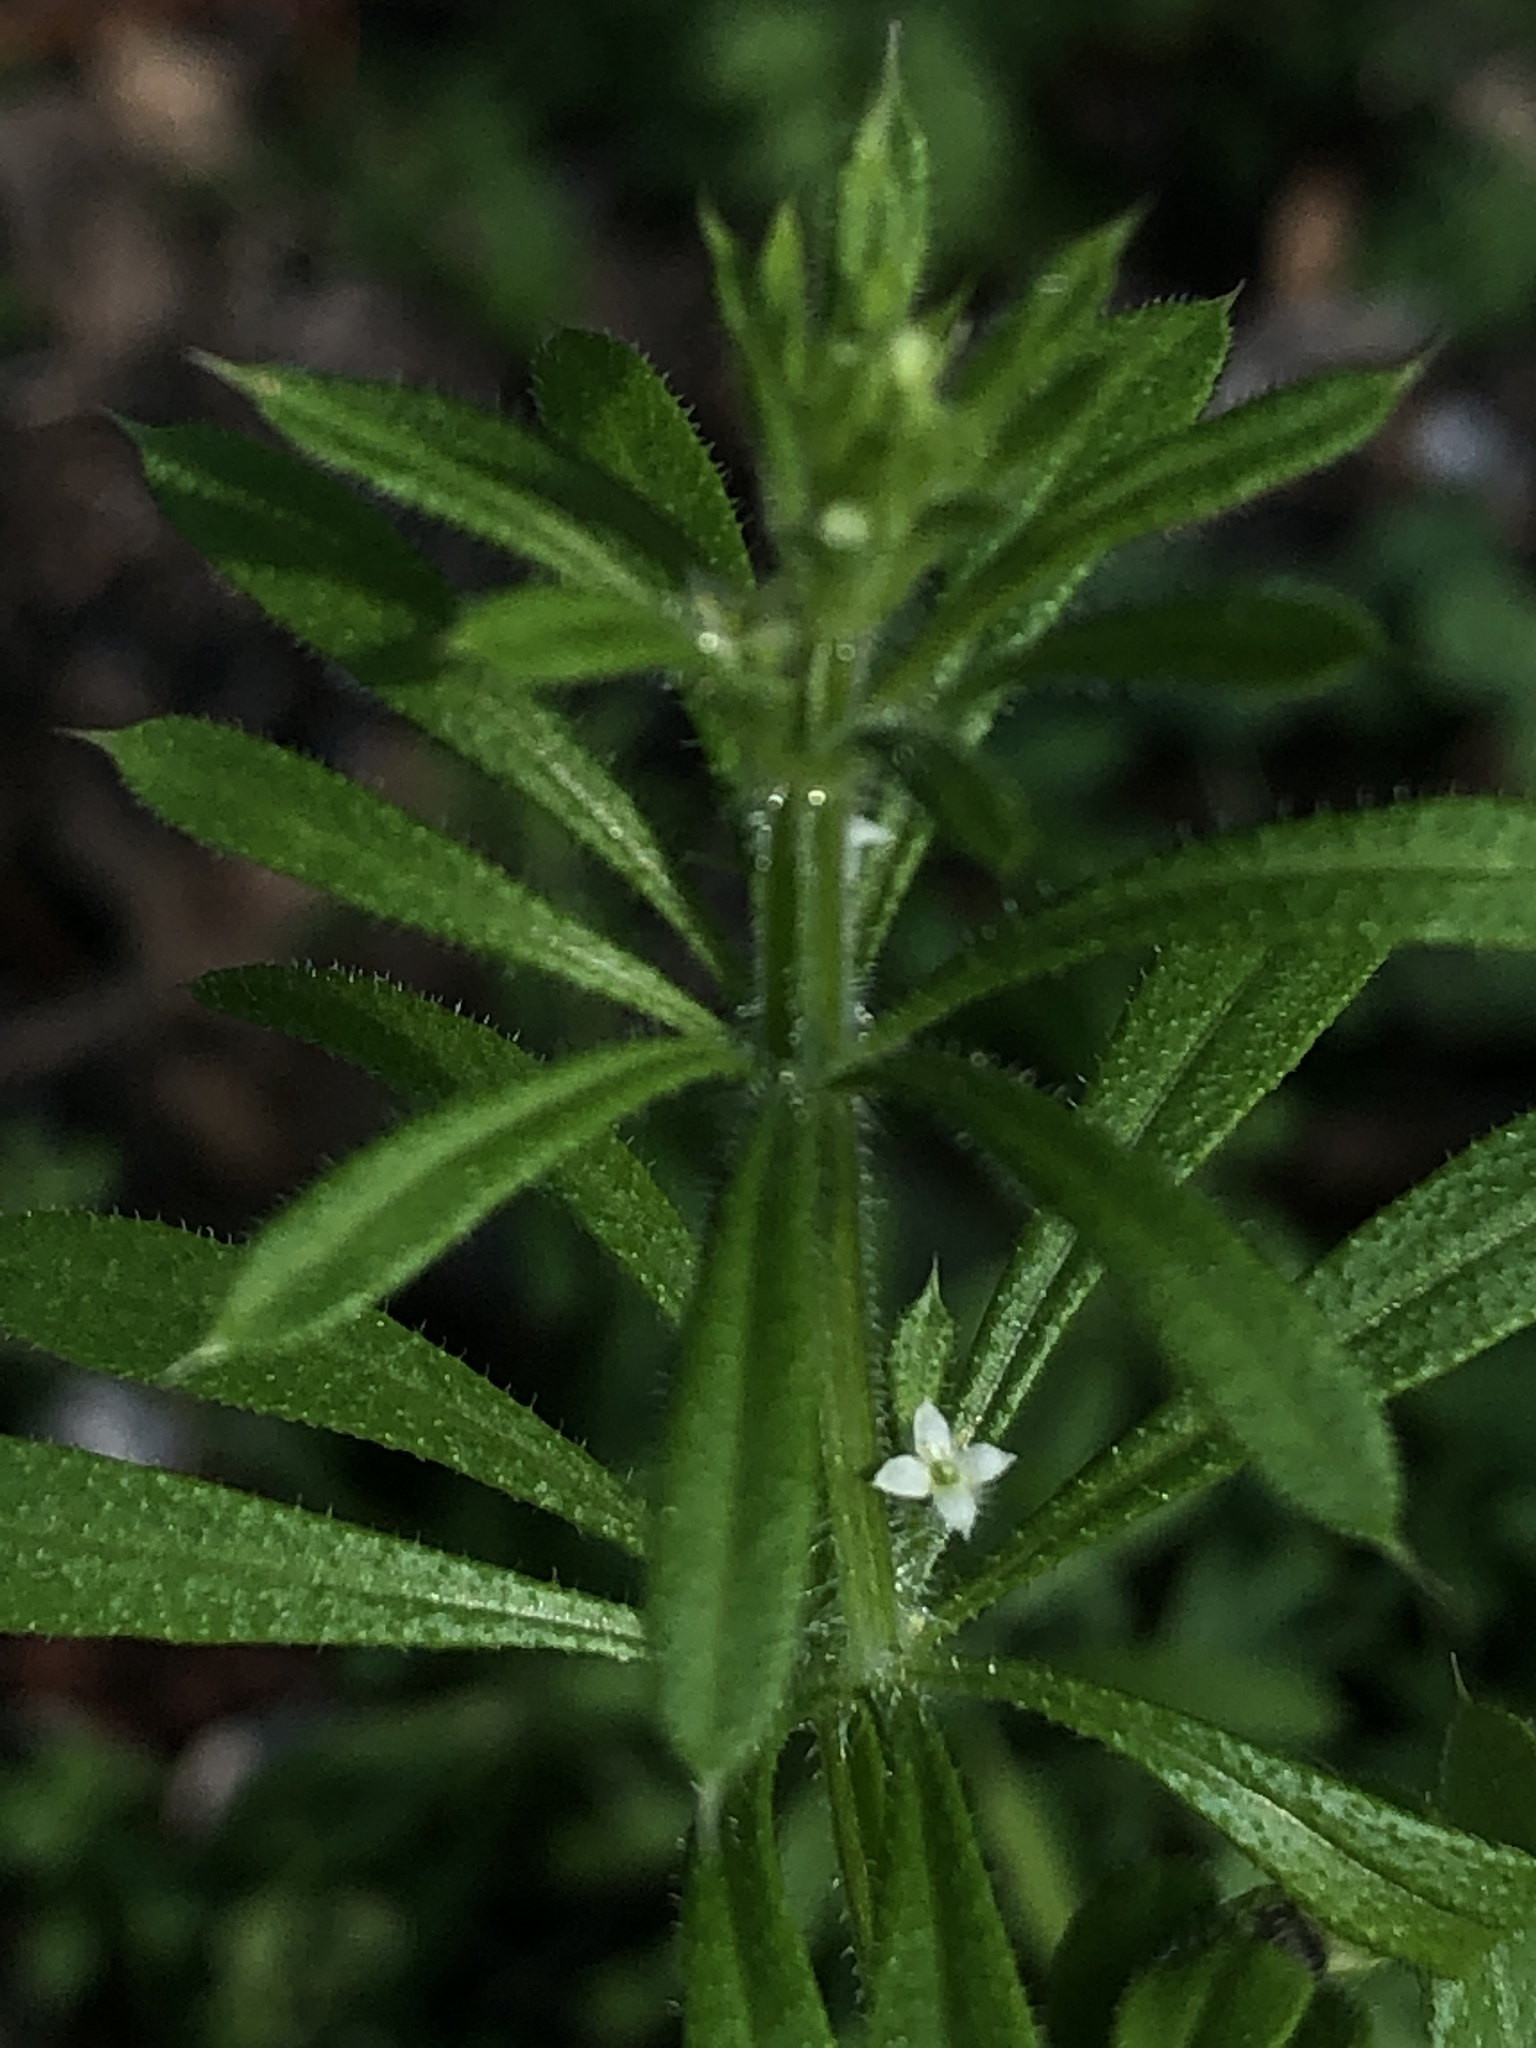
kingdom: Plantae
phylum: Tracheophyta
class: Magnoliopsida
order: Gentianales
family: Rubiaceae
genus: Galium
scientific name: Galium aparine
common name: Cleavers
